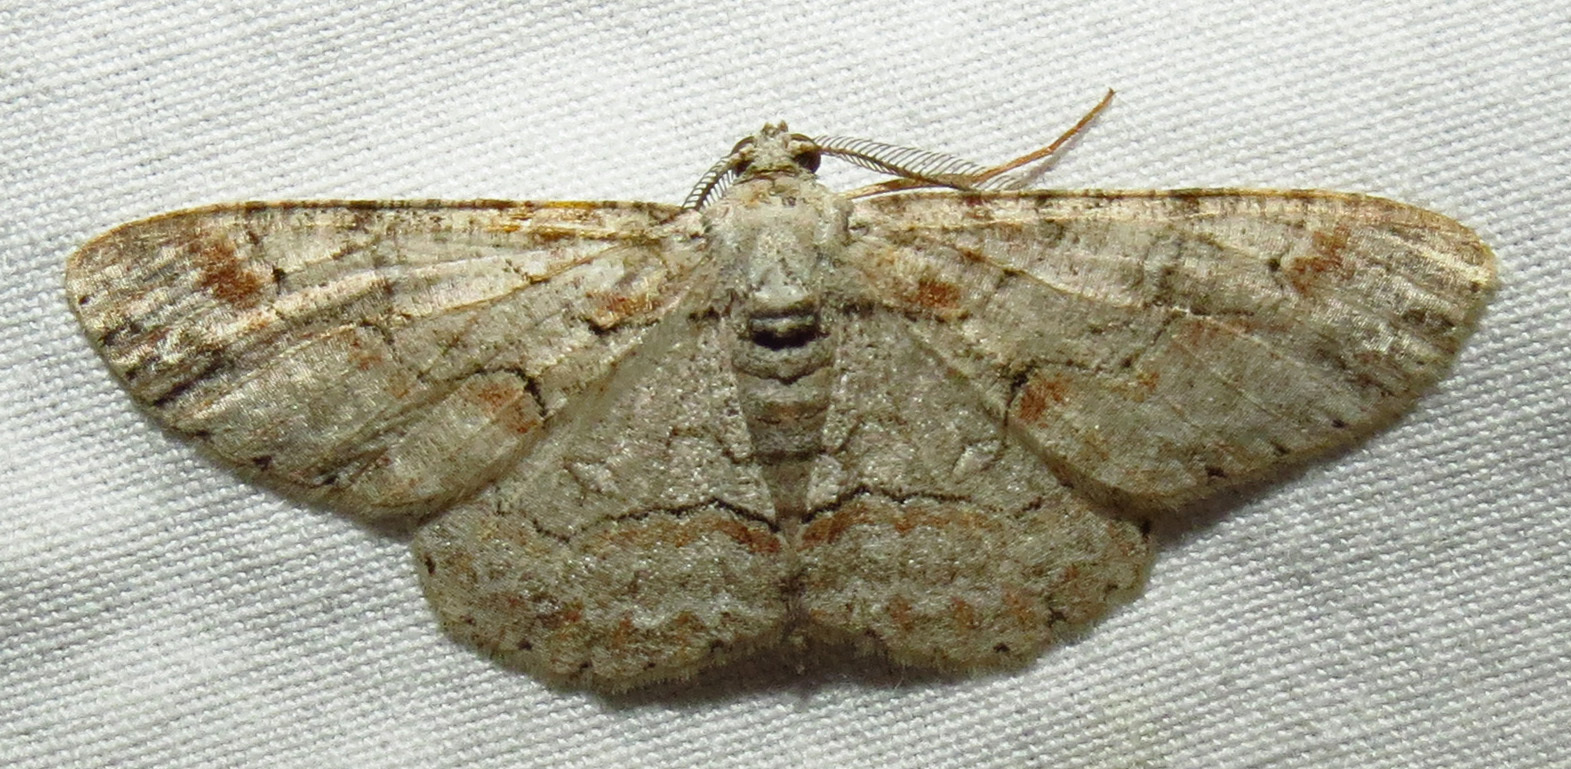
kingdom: Animalia
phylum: Arthropoda
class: Insecta
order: Lepidoptera
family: Geometridae
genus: Iridopsis
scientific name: Iridopsis defectaria
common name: Brown-shaded gray
